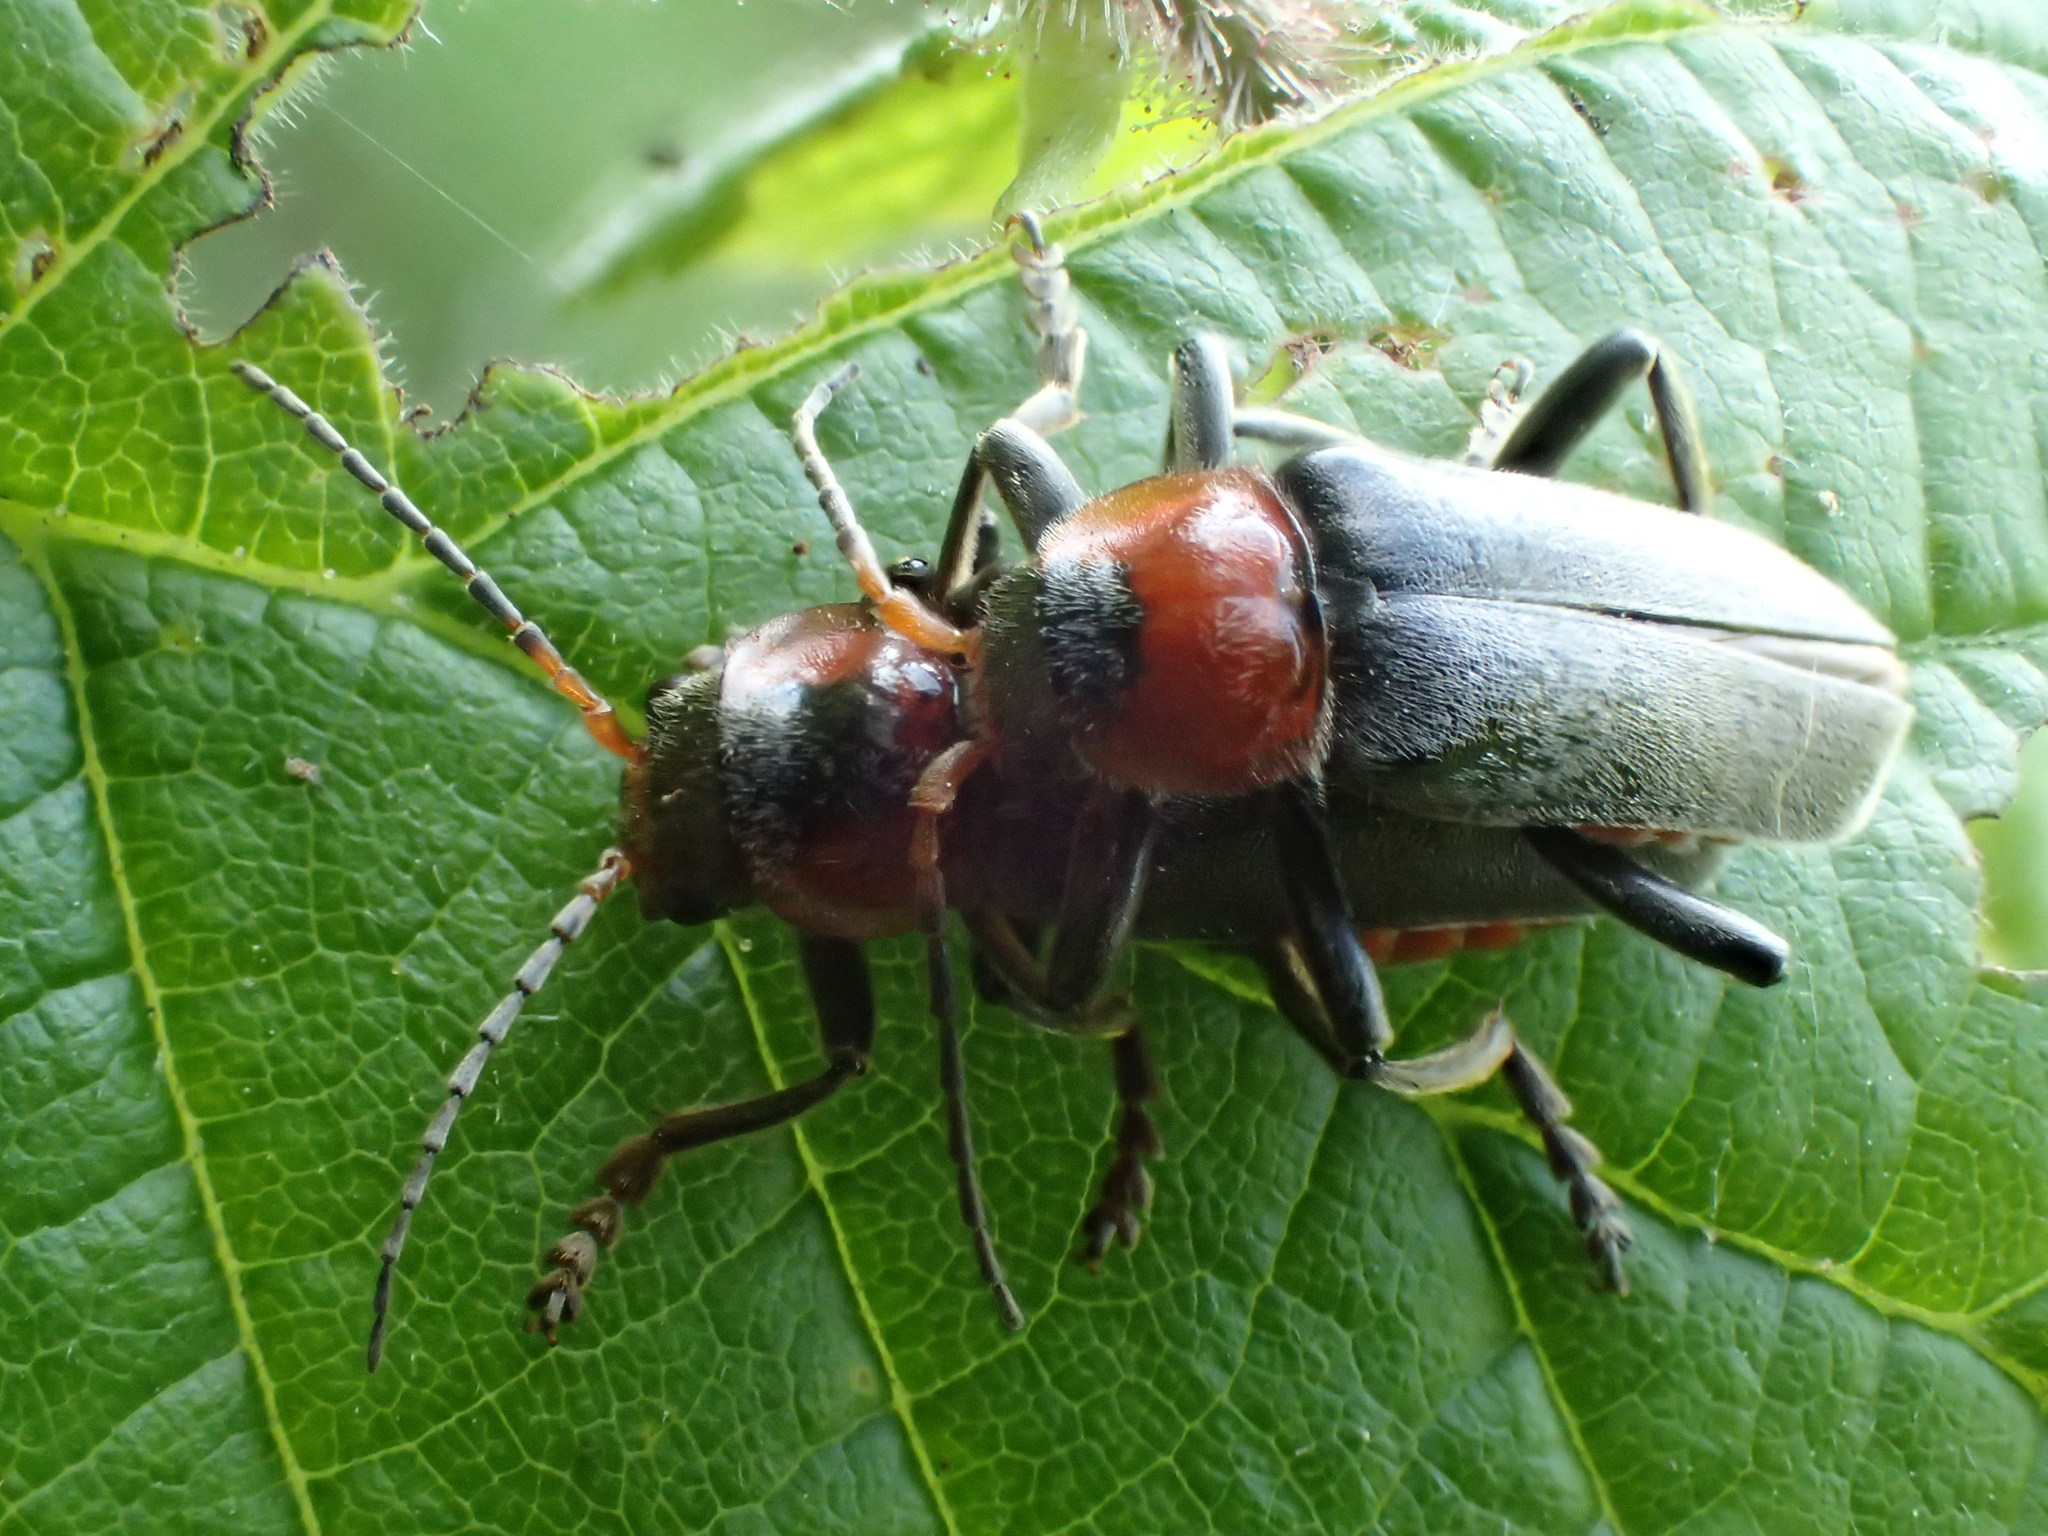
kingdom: Animalia
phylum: Arthropoda
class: Insecta
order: Coleoptera
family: Cantharidae
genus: Cantharis
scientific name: Cantharis fusca
